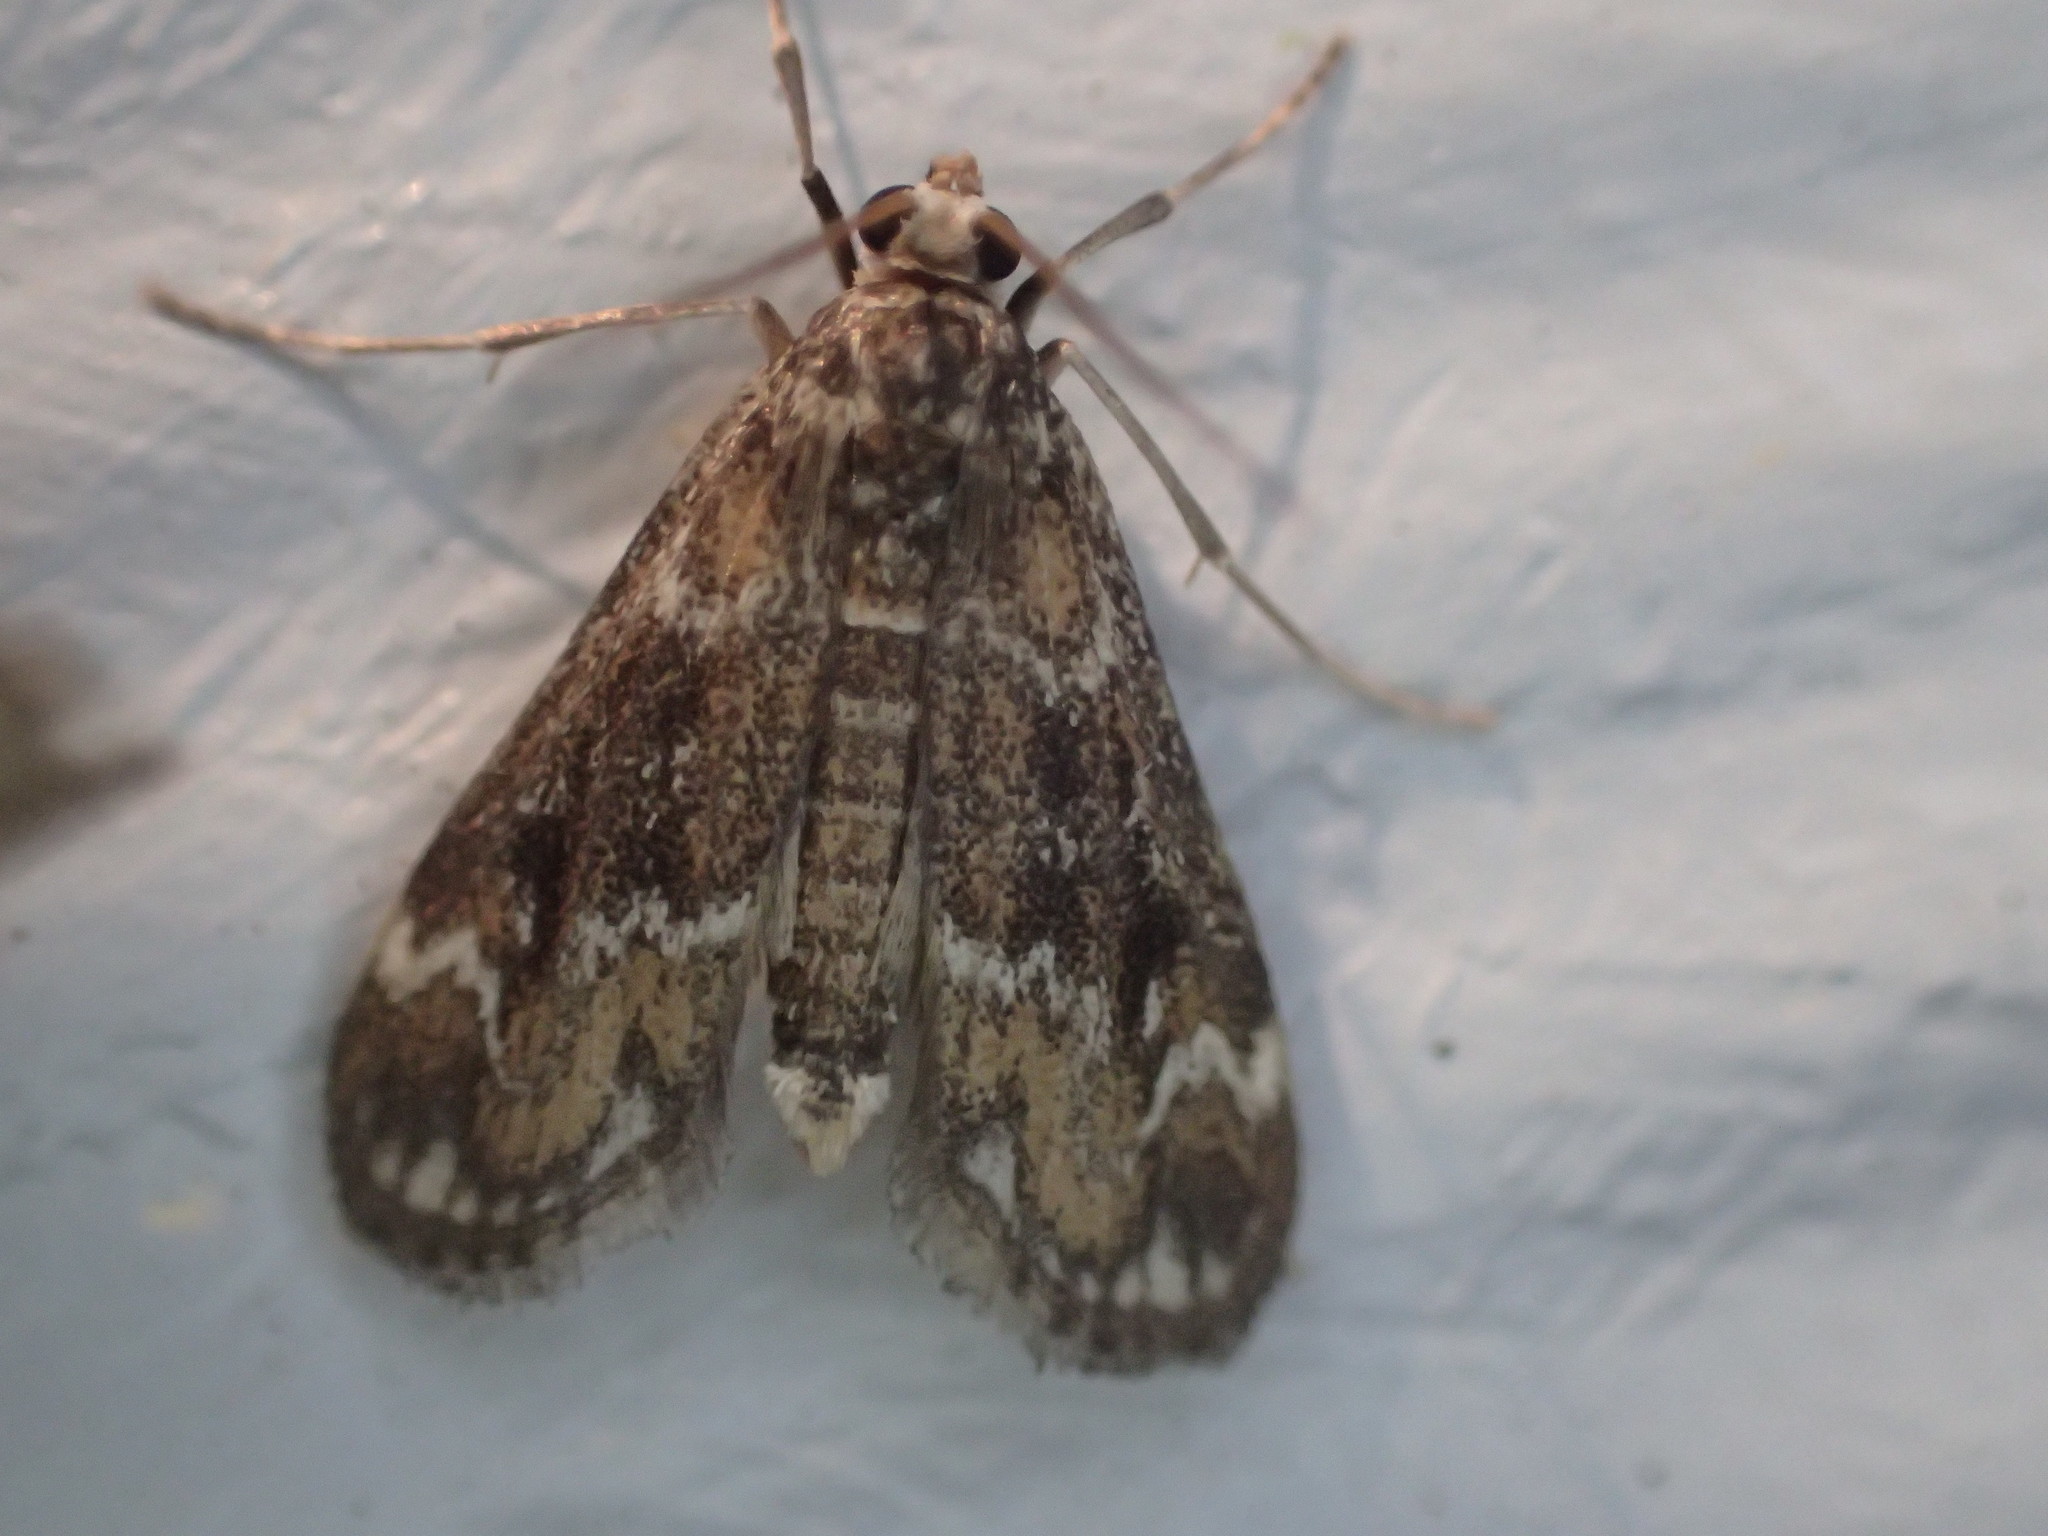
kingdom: Animalia
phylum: Arthropoda
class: Insecta
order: Lepidoptera
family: Crambidae
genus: Hygraula
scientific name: Hygraula nitens
